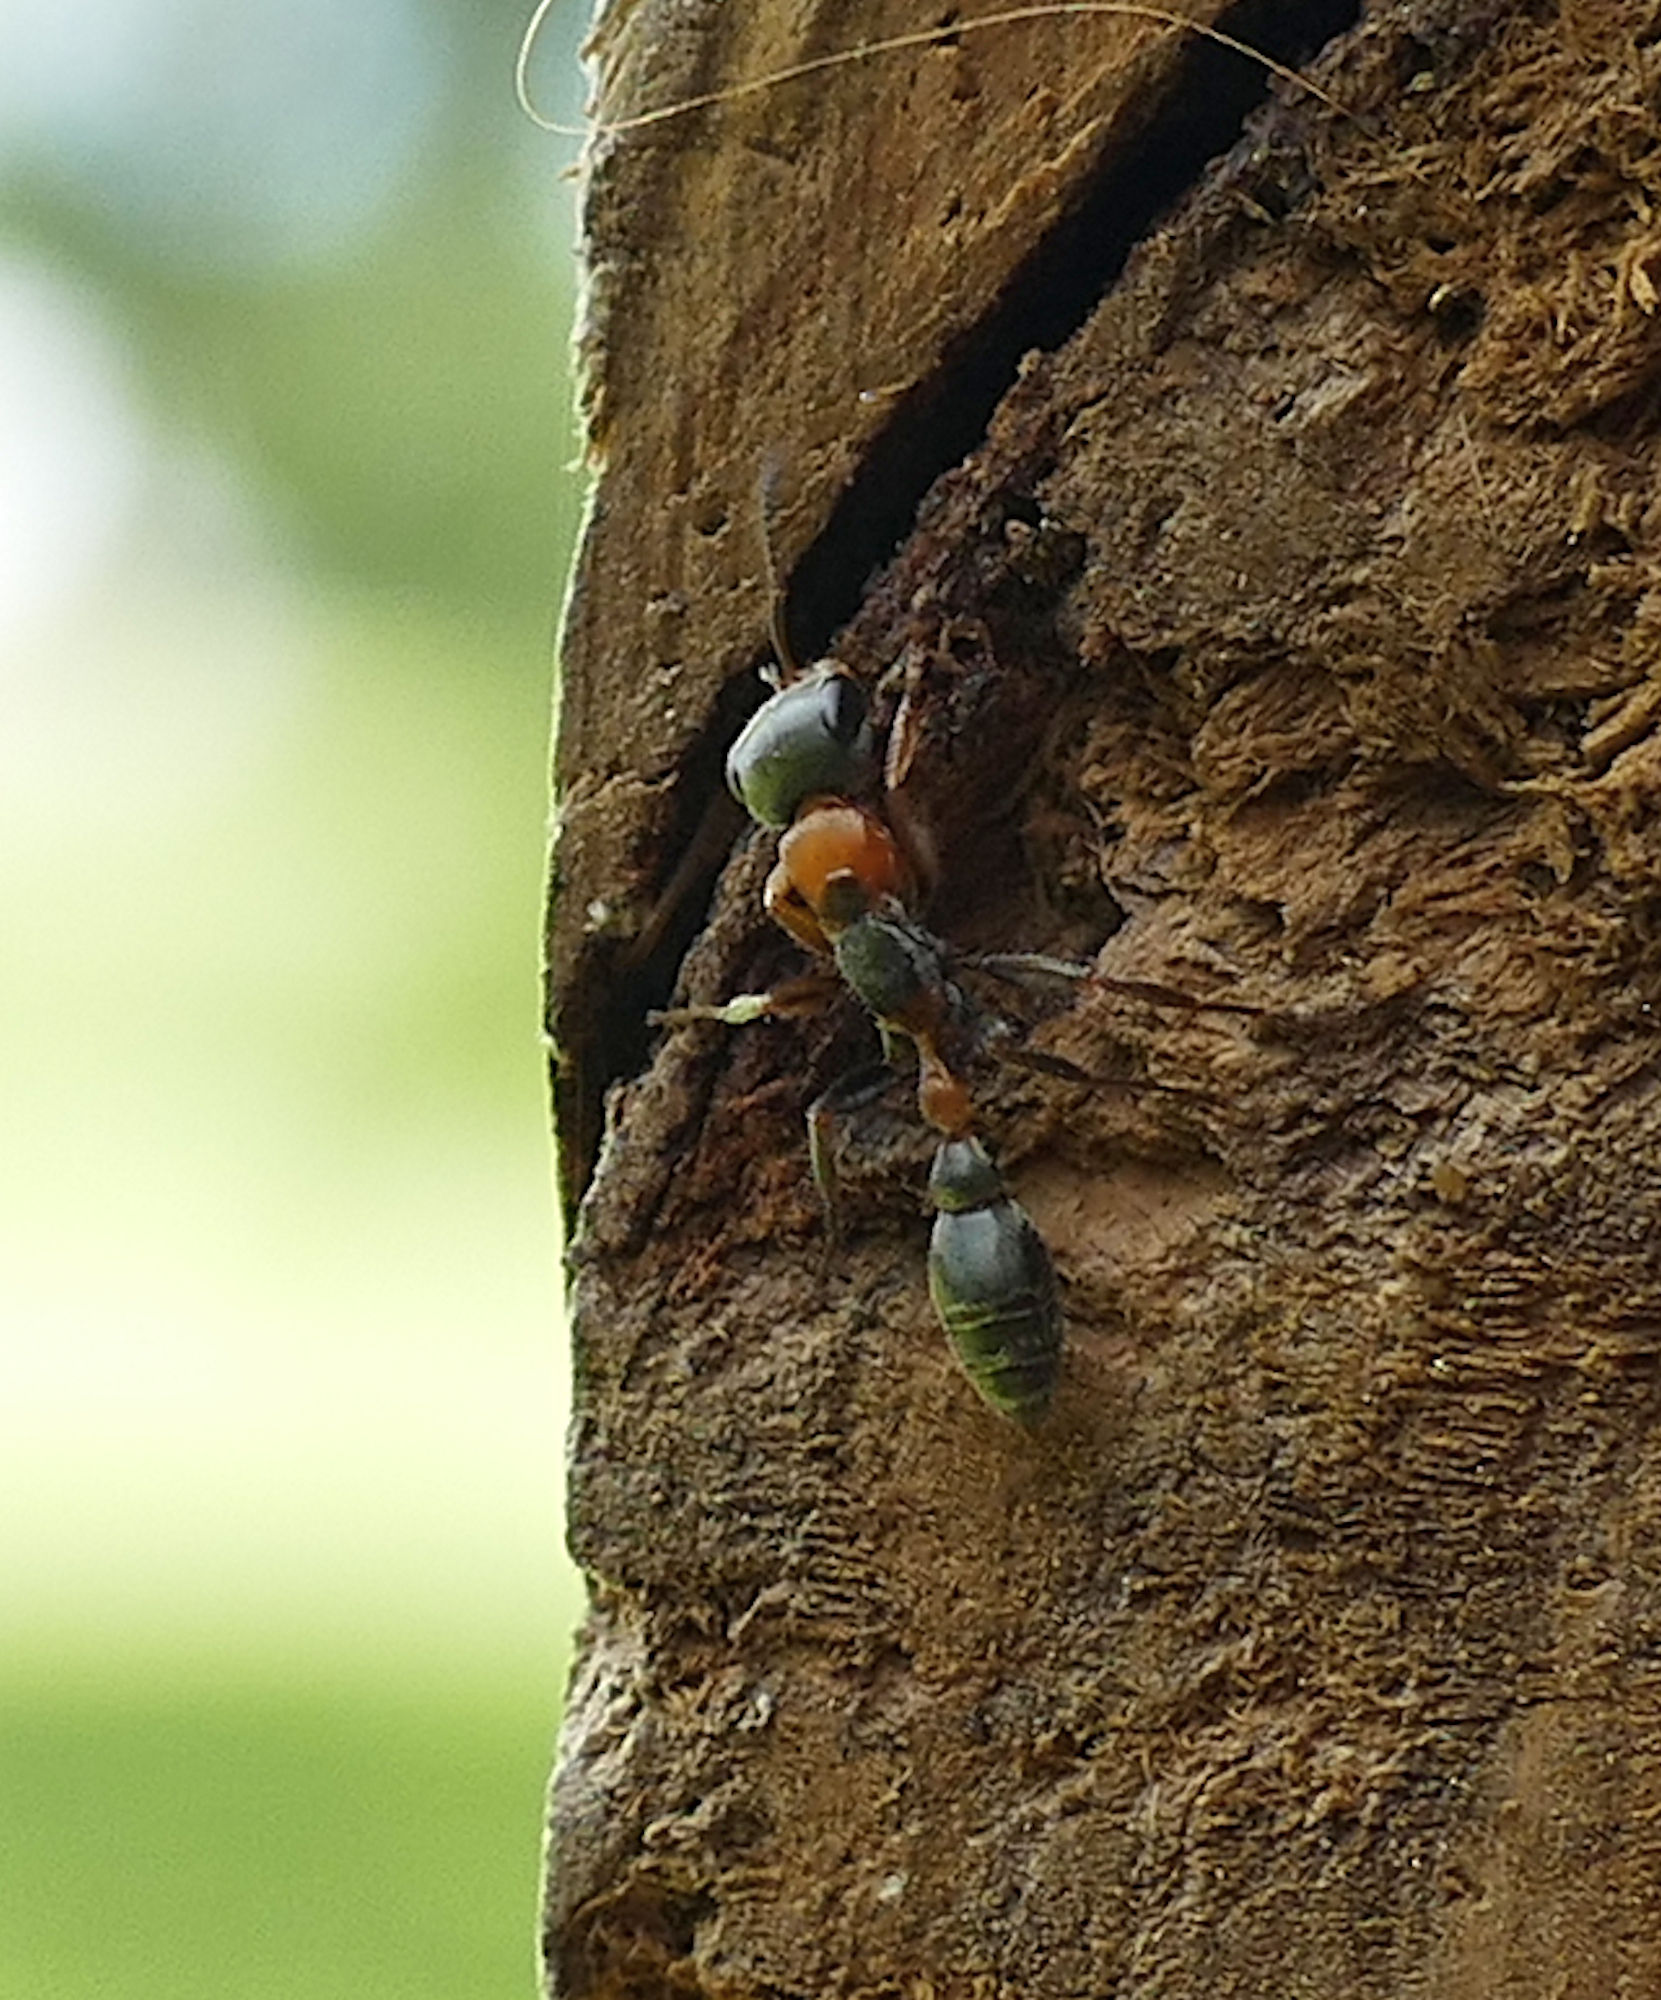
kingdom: Animalia
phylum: Arthropoda
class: Insecta
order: Hymenoptera
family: Formicidae
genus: Pseudomyrmex
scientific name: Pseudomyrmex gracilis
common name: Graceful twig ant
